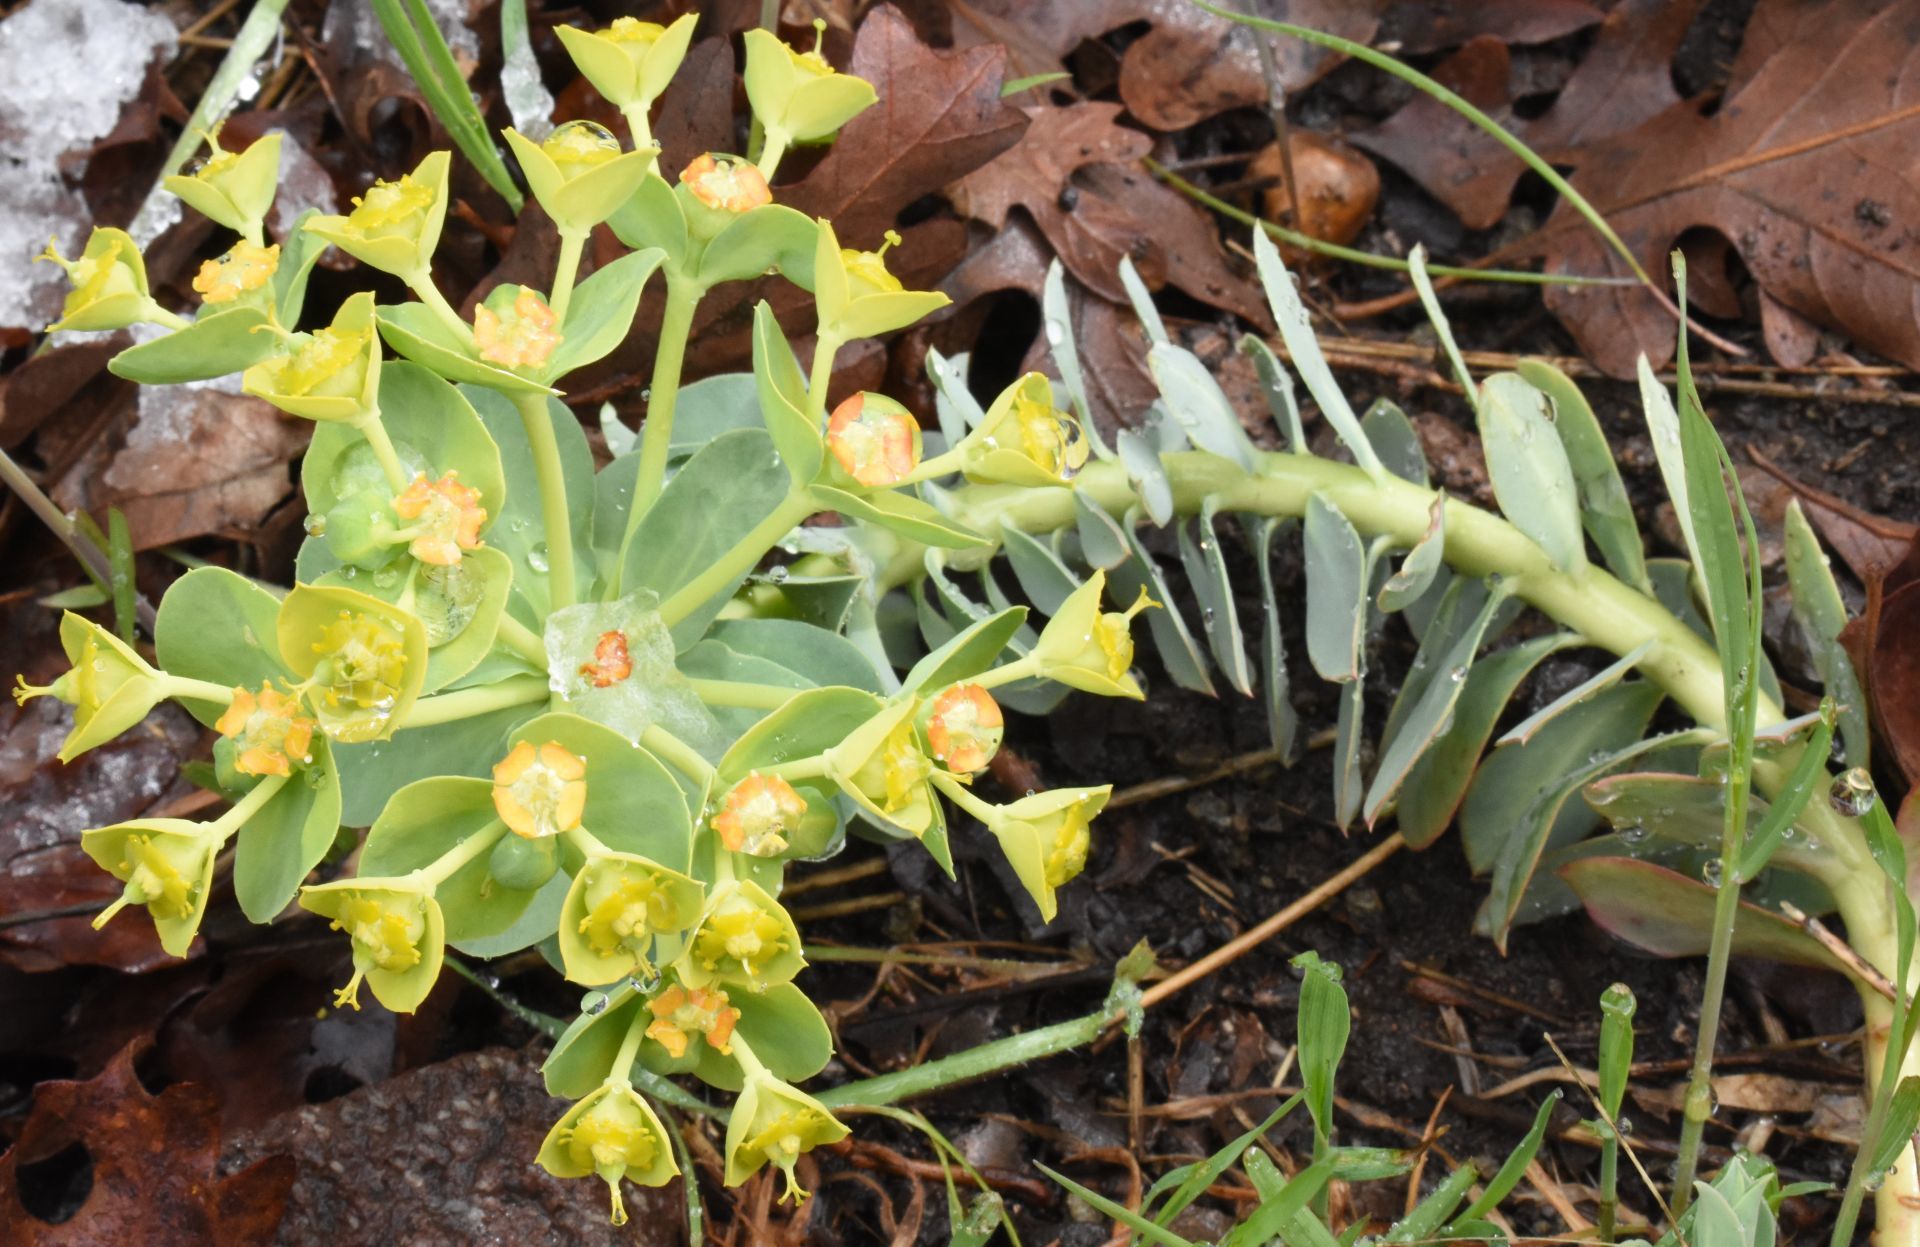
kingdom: Plantae
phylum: Tracheophyta
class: Magnoliopsida
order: Malpighiales
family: Euphorbiaceae
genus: Euphorbia
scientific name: Euphorbia myrsinites
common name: Myrtle spurge
